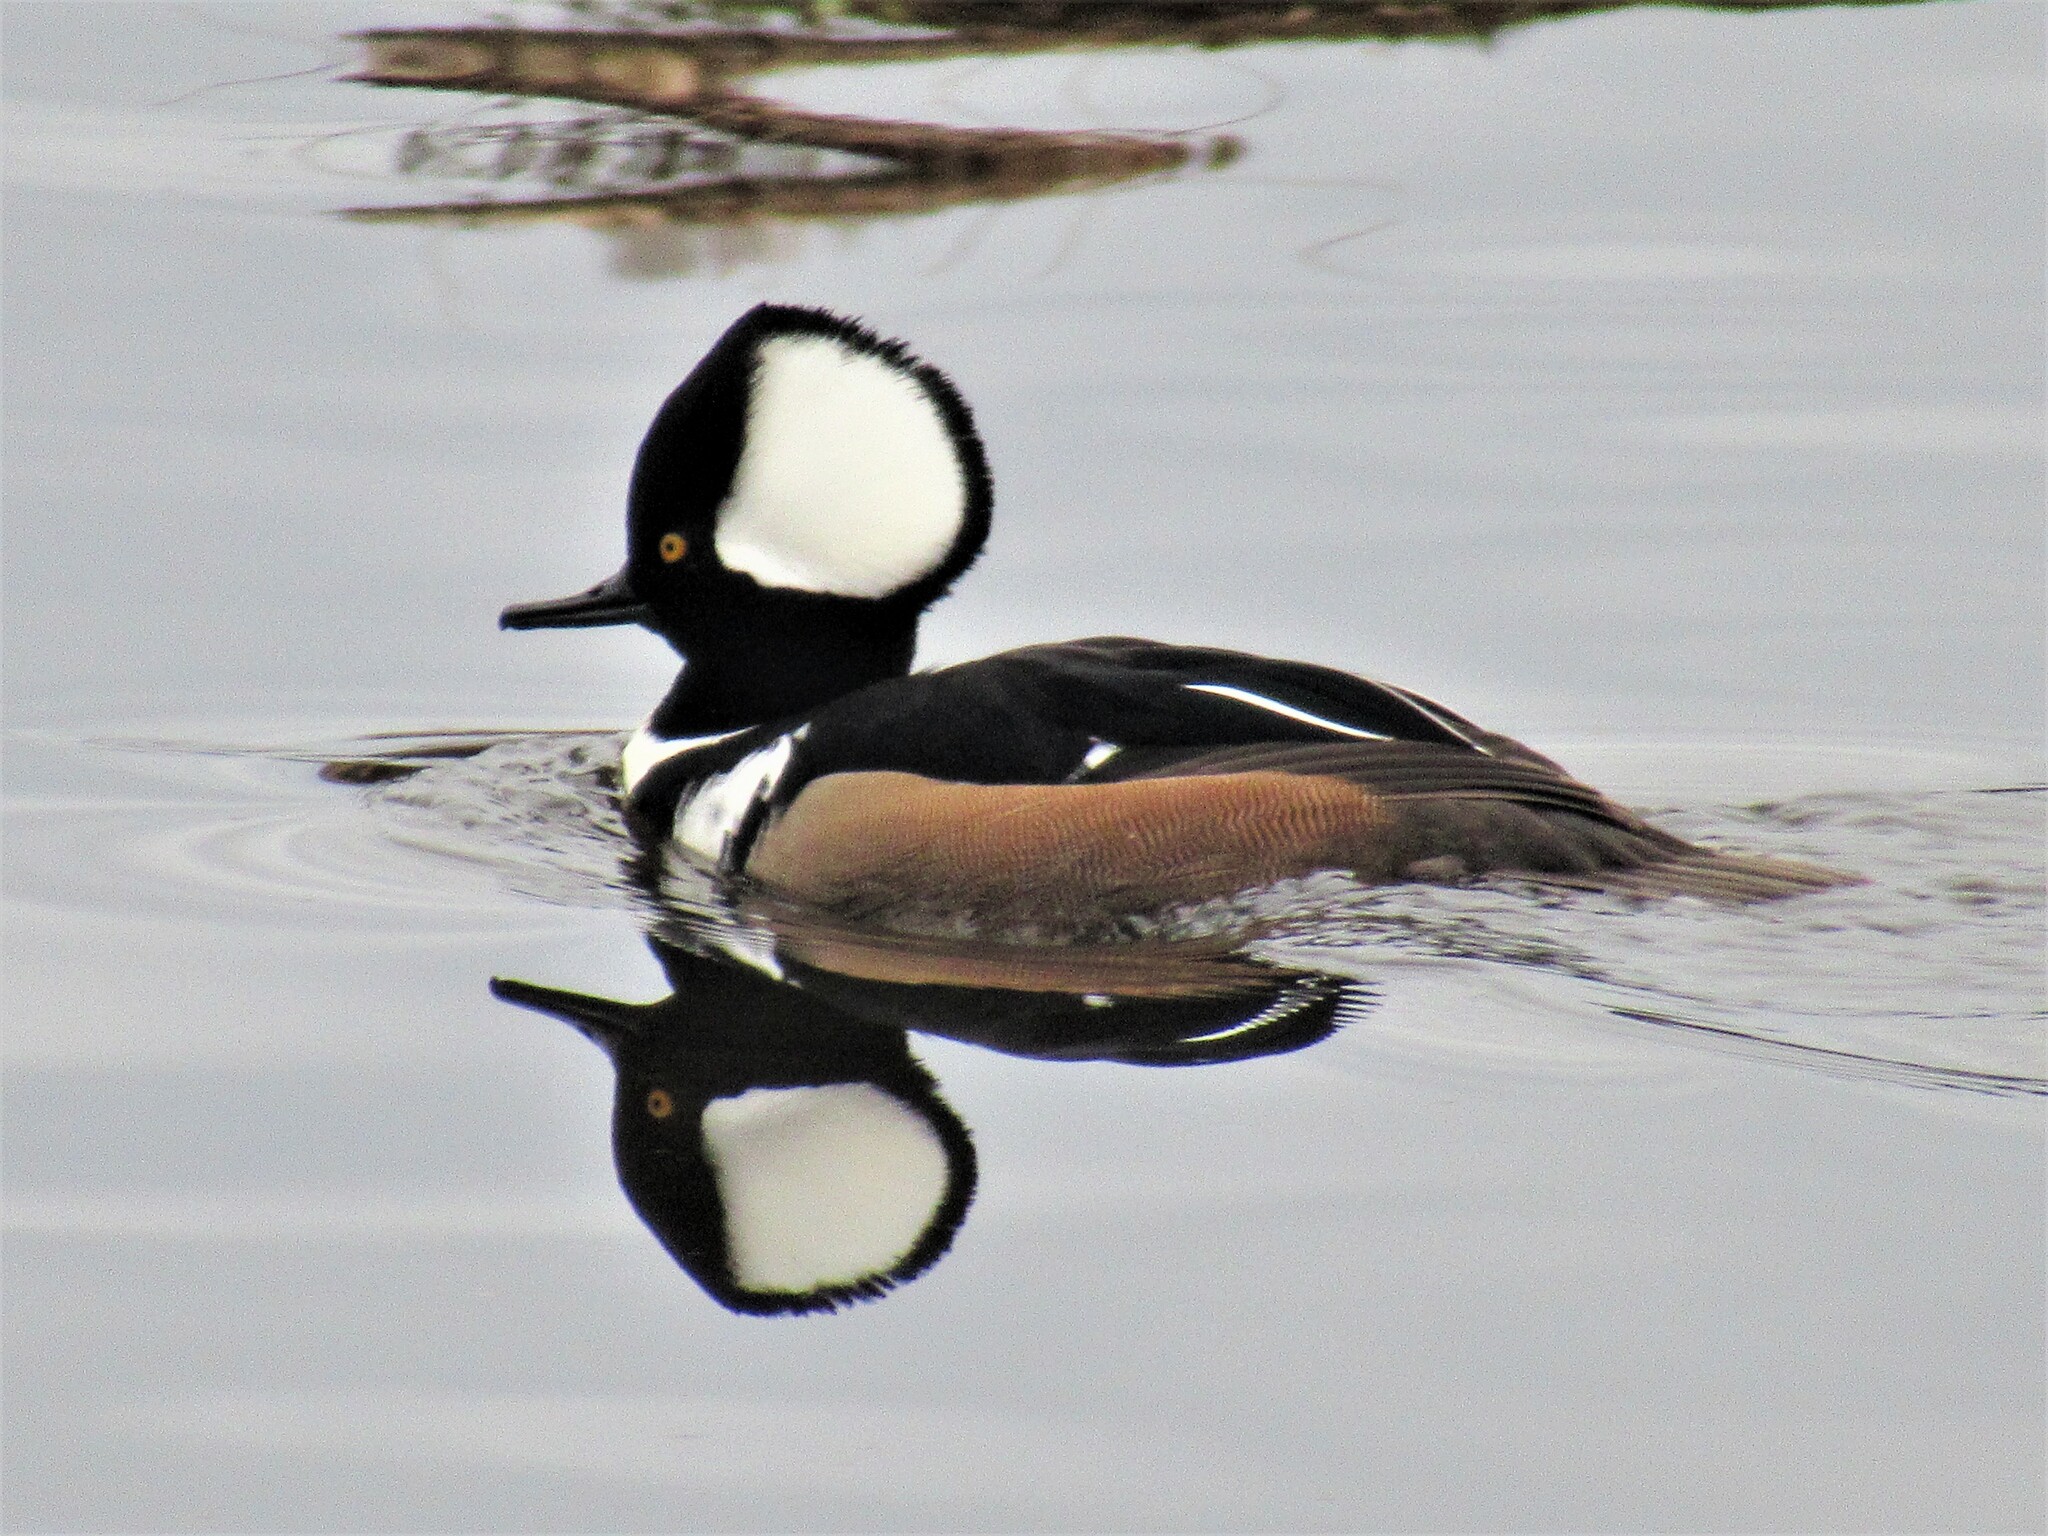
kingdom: Animalia
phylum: Chordata
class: Aves
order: Anseriformes
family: Anatidae
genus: Lophodytes
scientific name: Lophodytes cucullatus
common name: Hooded merganser
